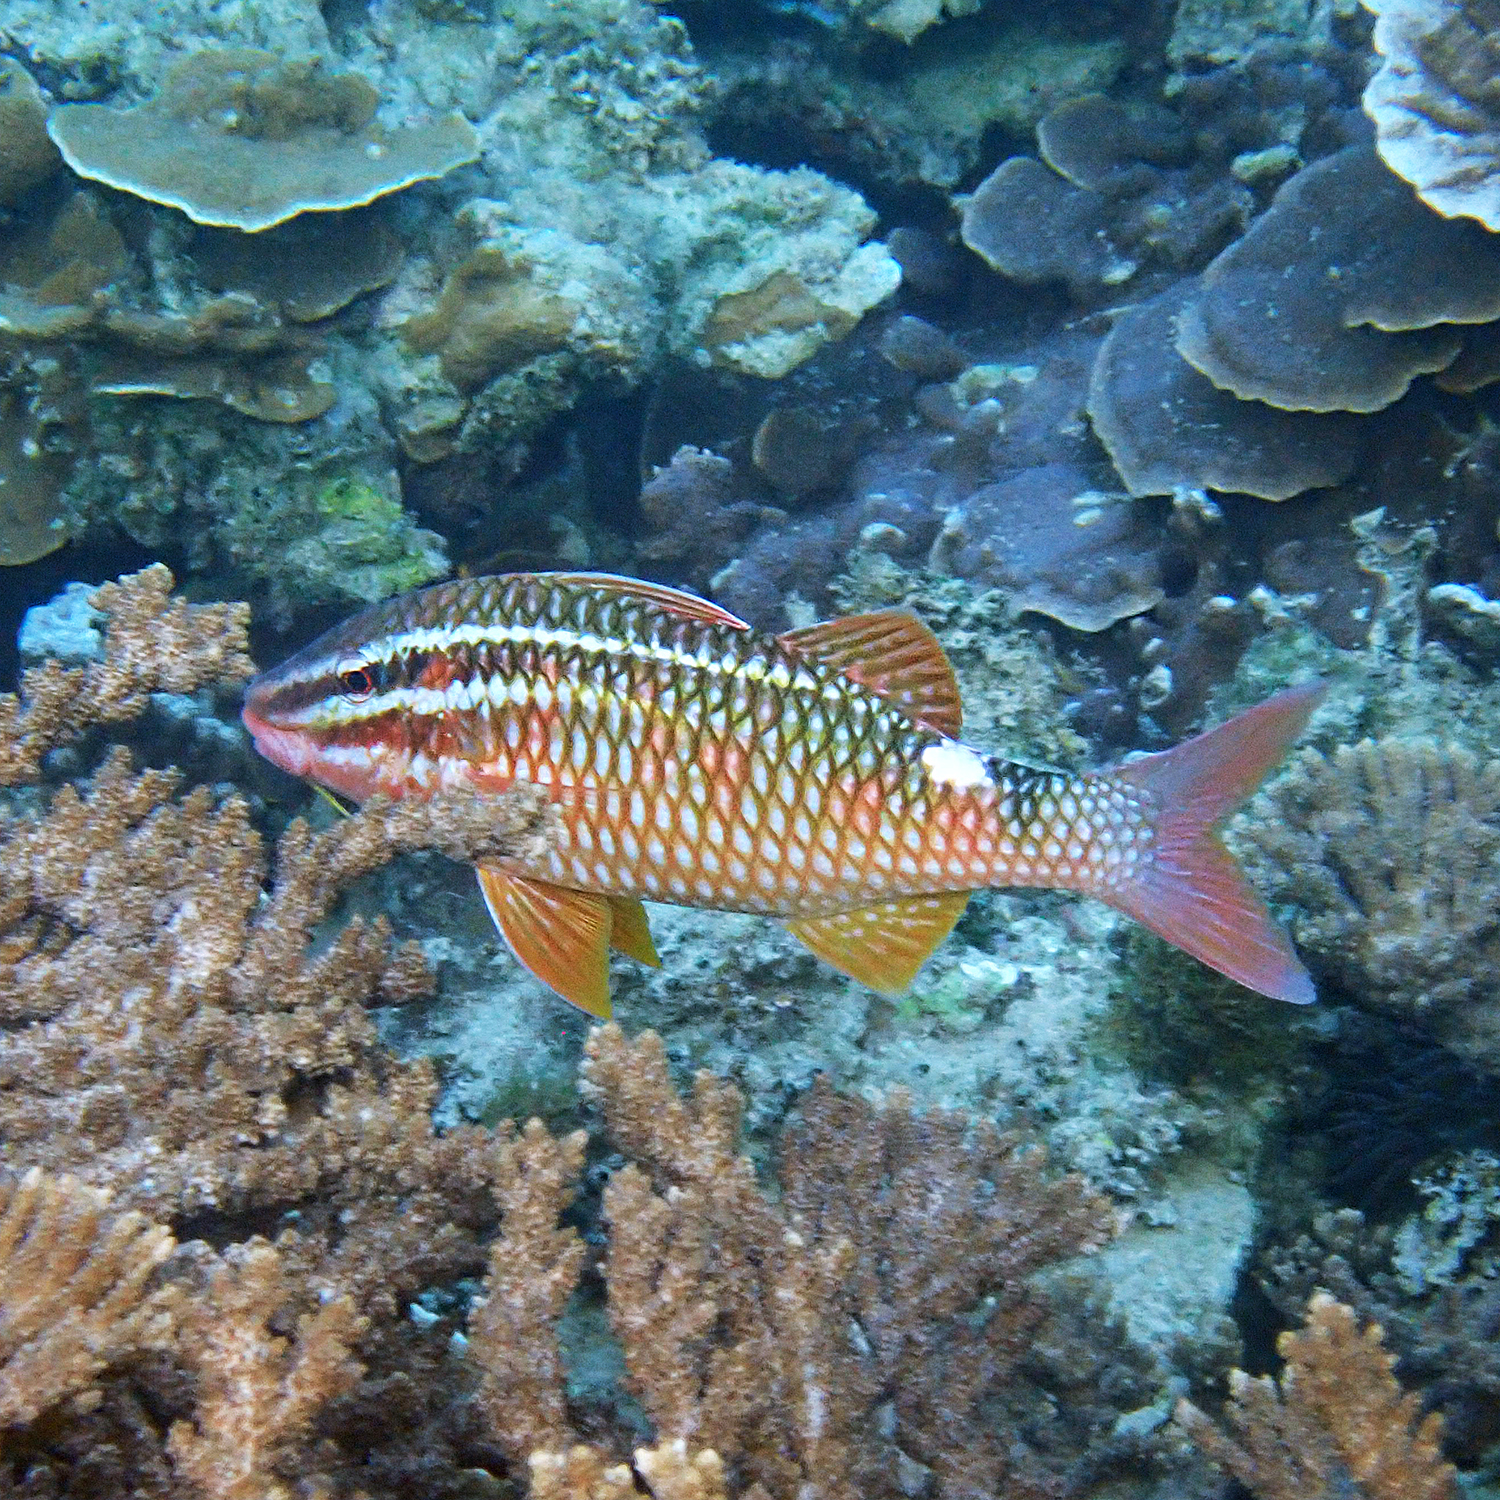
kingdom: Animalia
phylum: Chordata
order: Perciformes
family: Mullidae
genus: Parupeneus
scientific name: Parupeneus ciliatus
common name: White-lined goatfish
